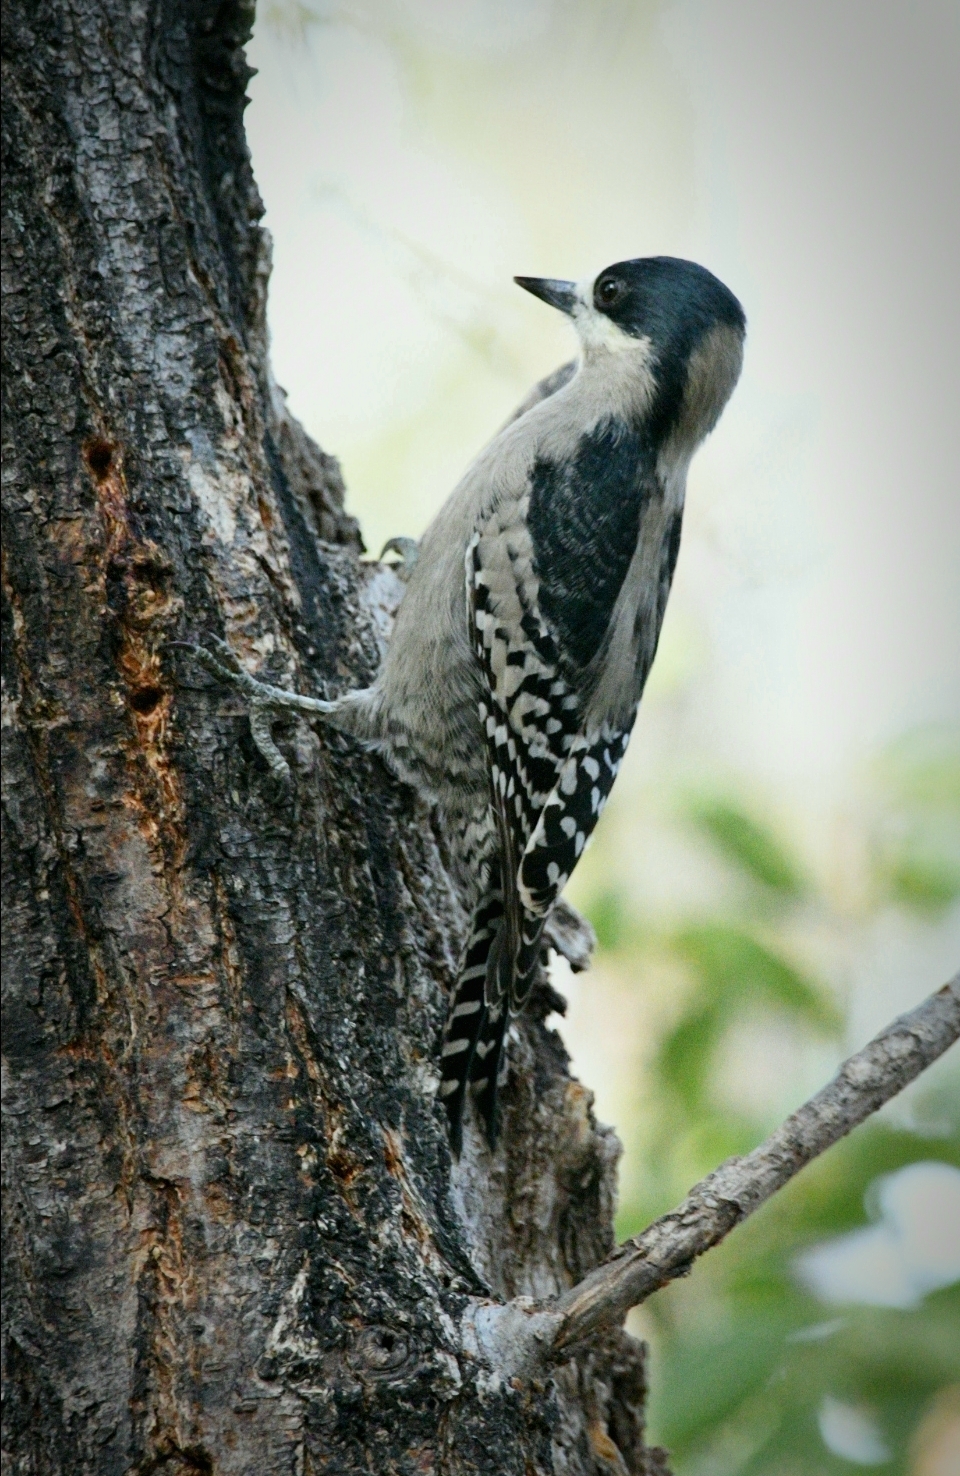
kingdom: Animalia
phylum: Chordata
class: Aves
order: Piciformes
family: Picidae
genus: Melanerpes
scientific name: Melanerpes cactorum
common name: White-fronted woodpecker
